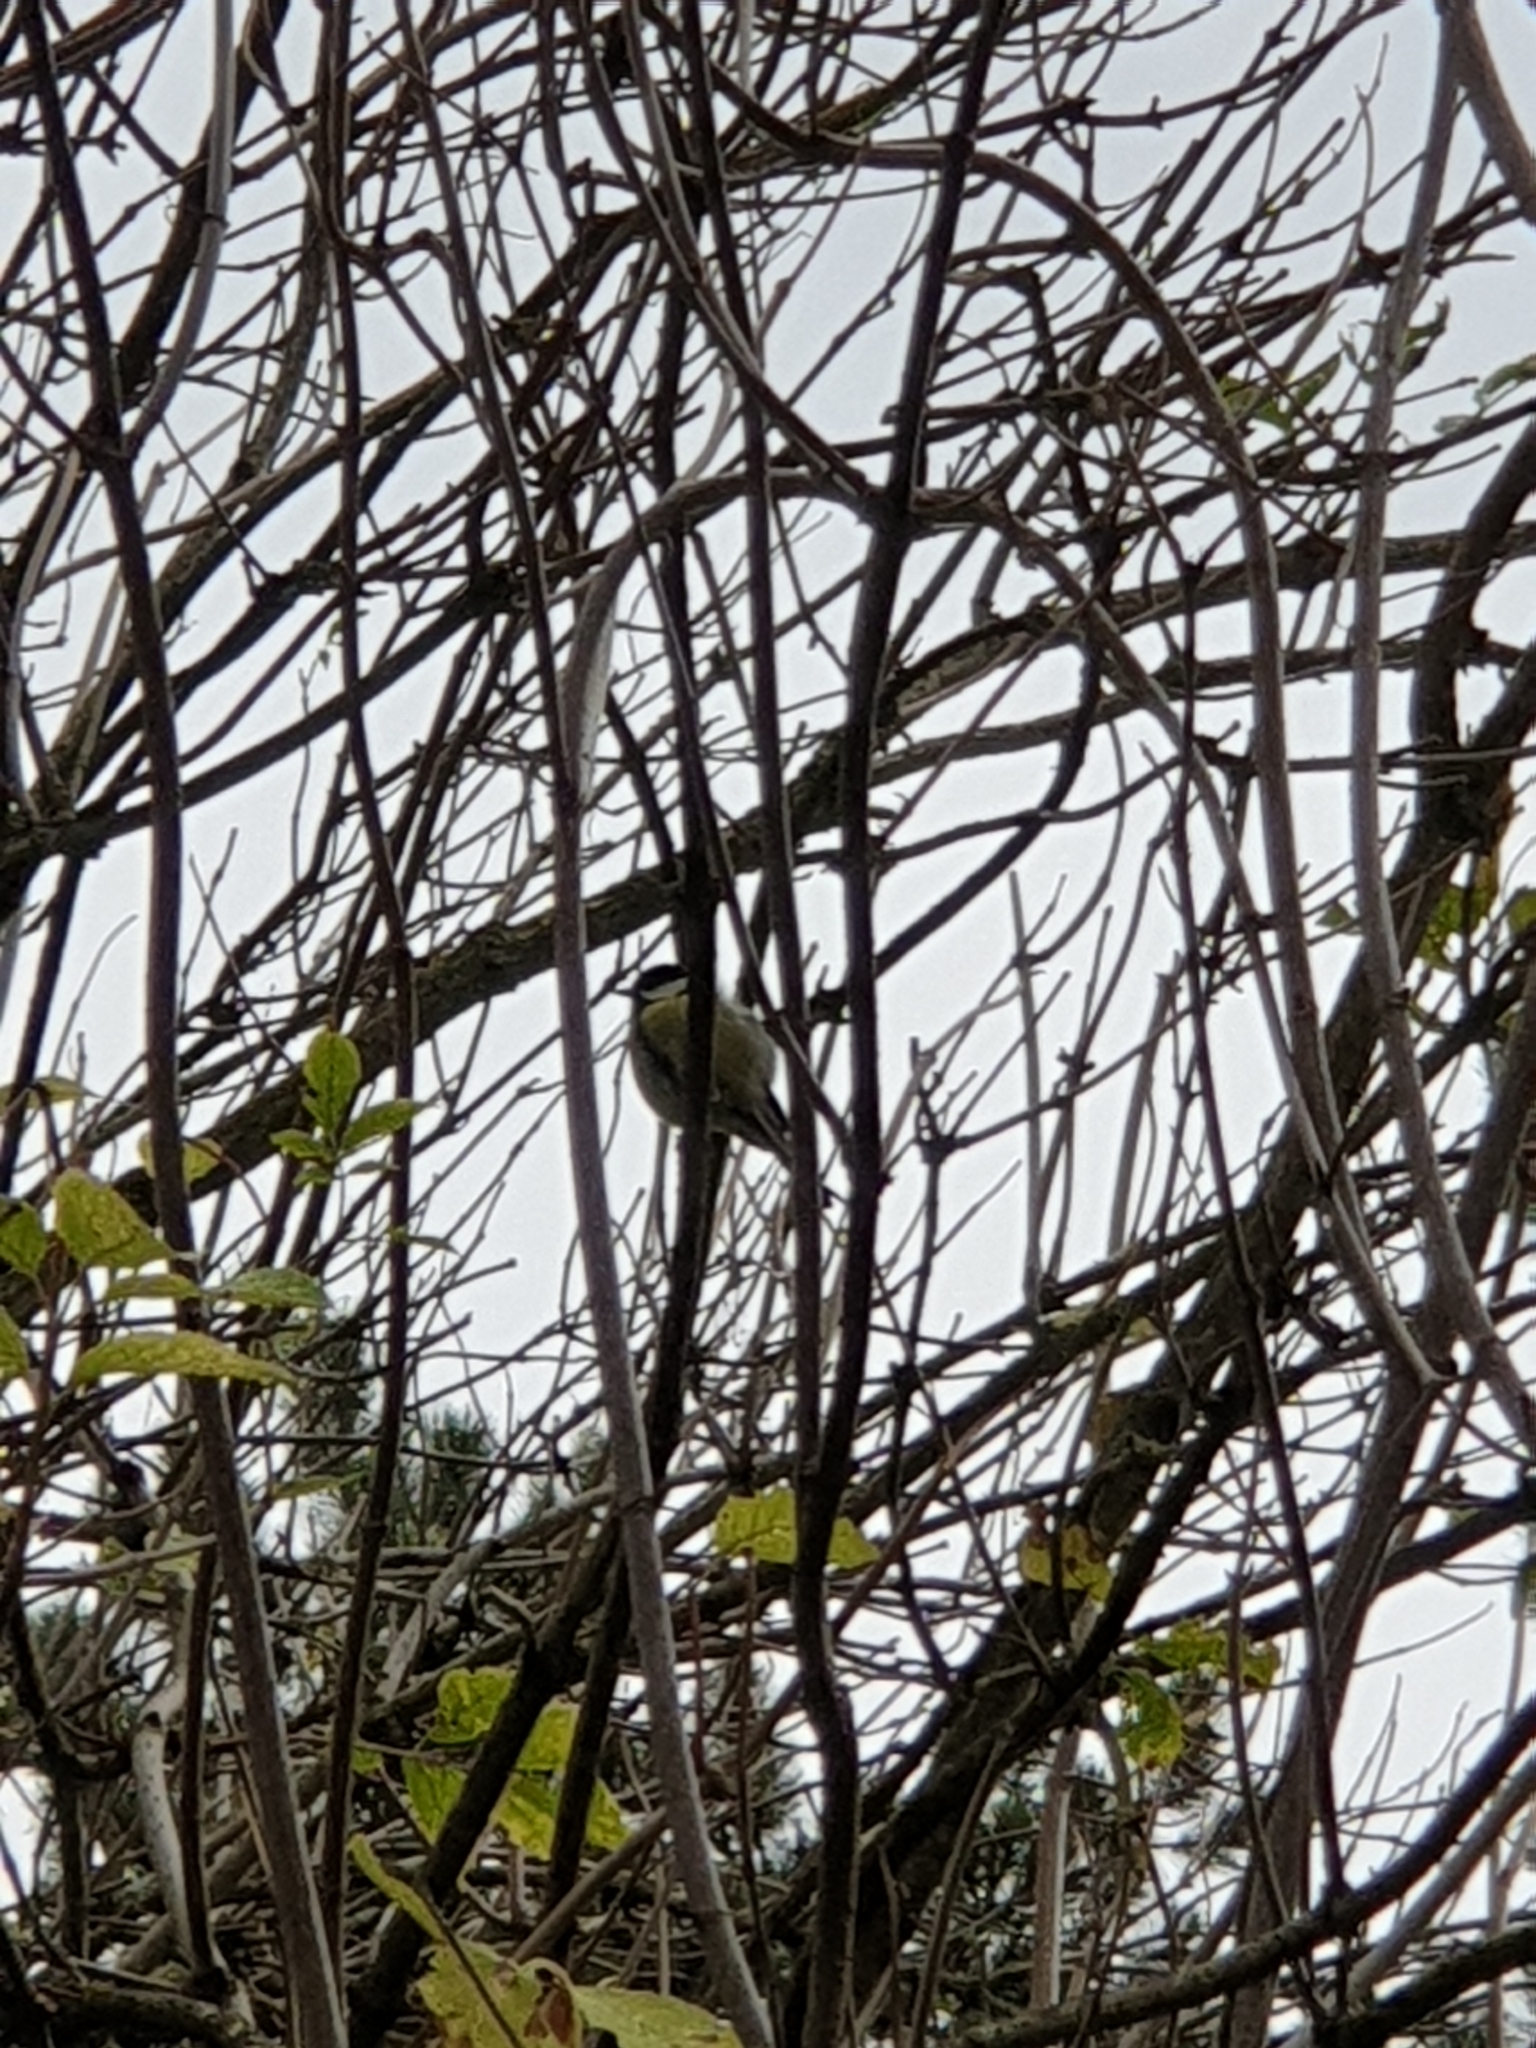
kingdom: Animalia
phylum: Chordata
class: Aves
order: Passeriformes
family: Paridae
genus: Parus
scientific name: Parus major
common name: Great tit
